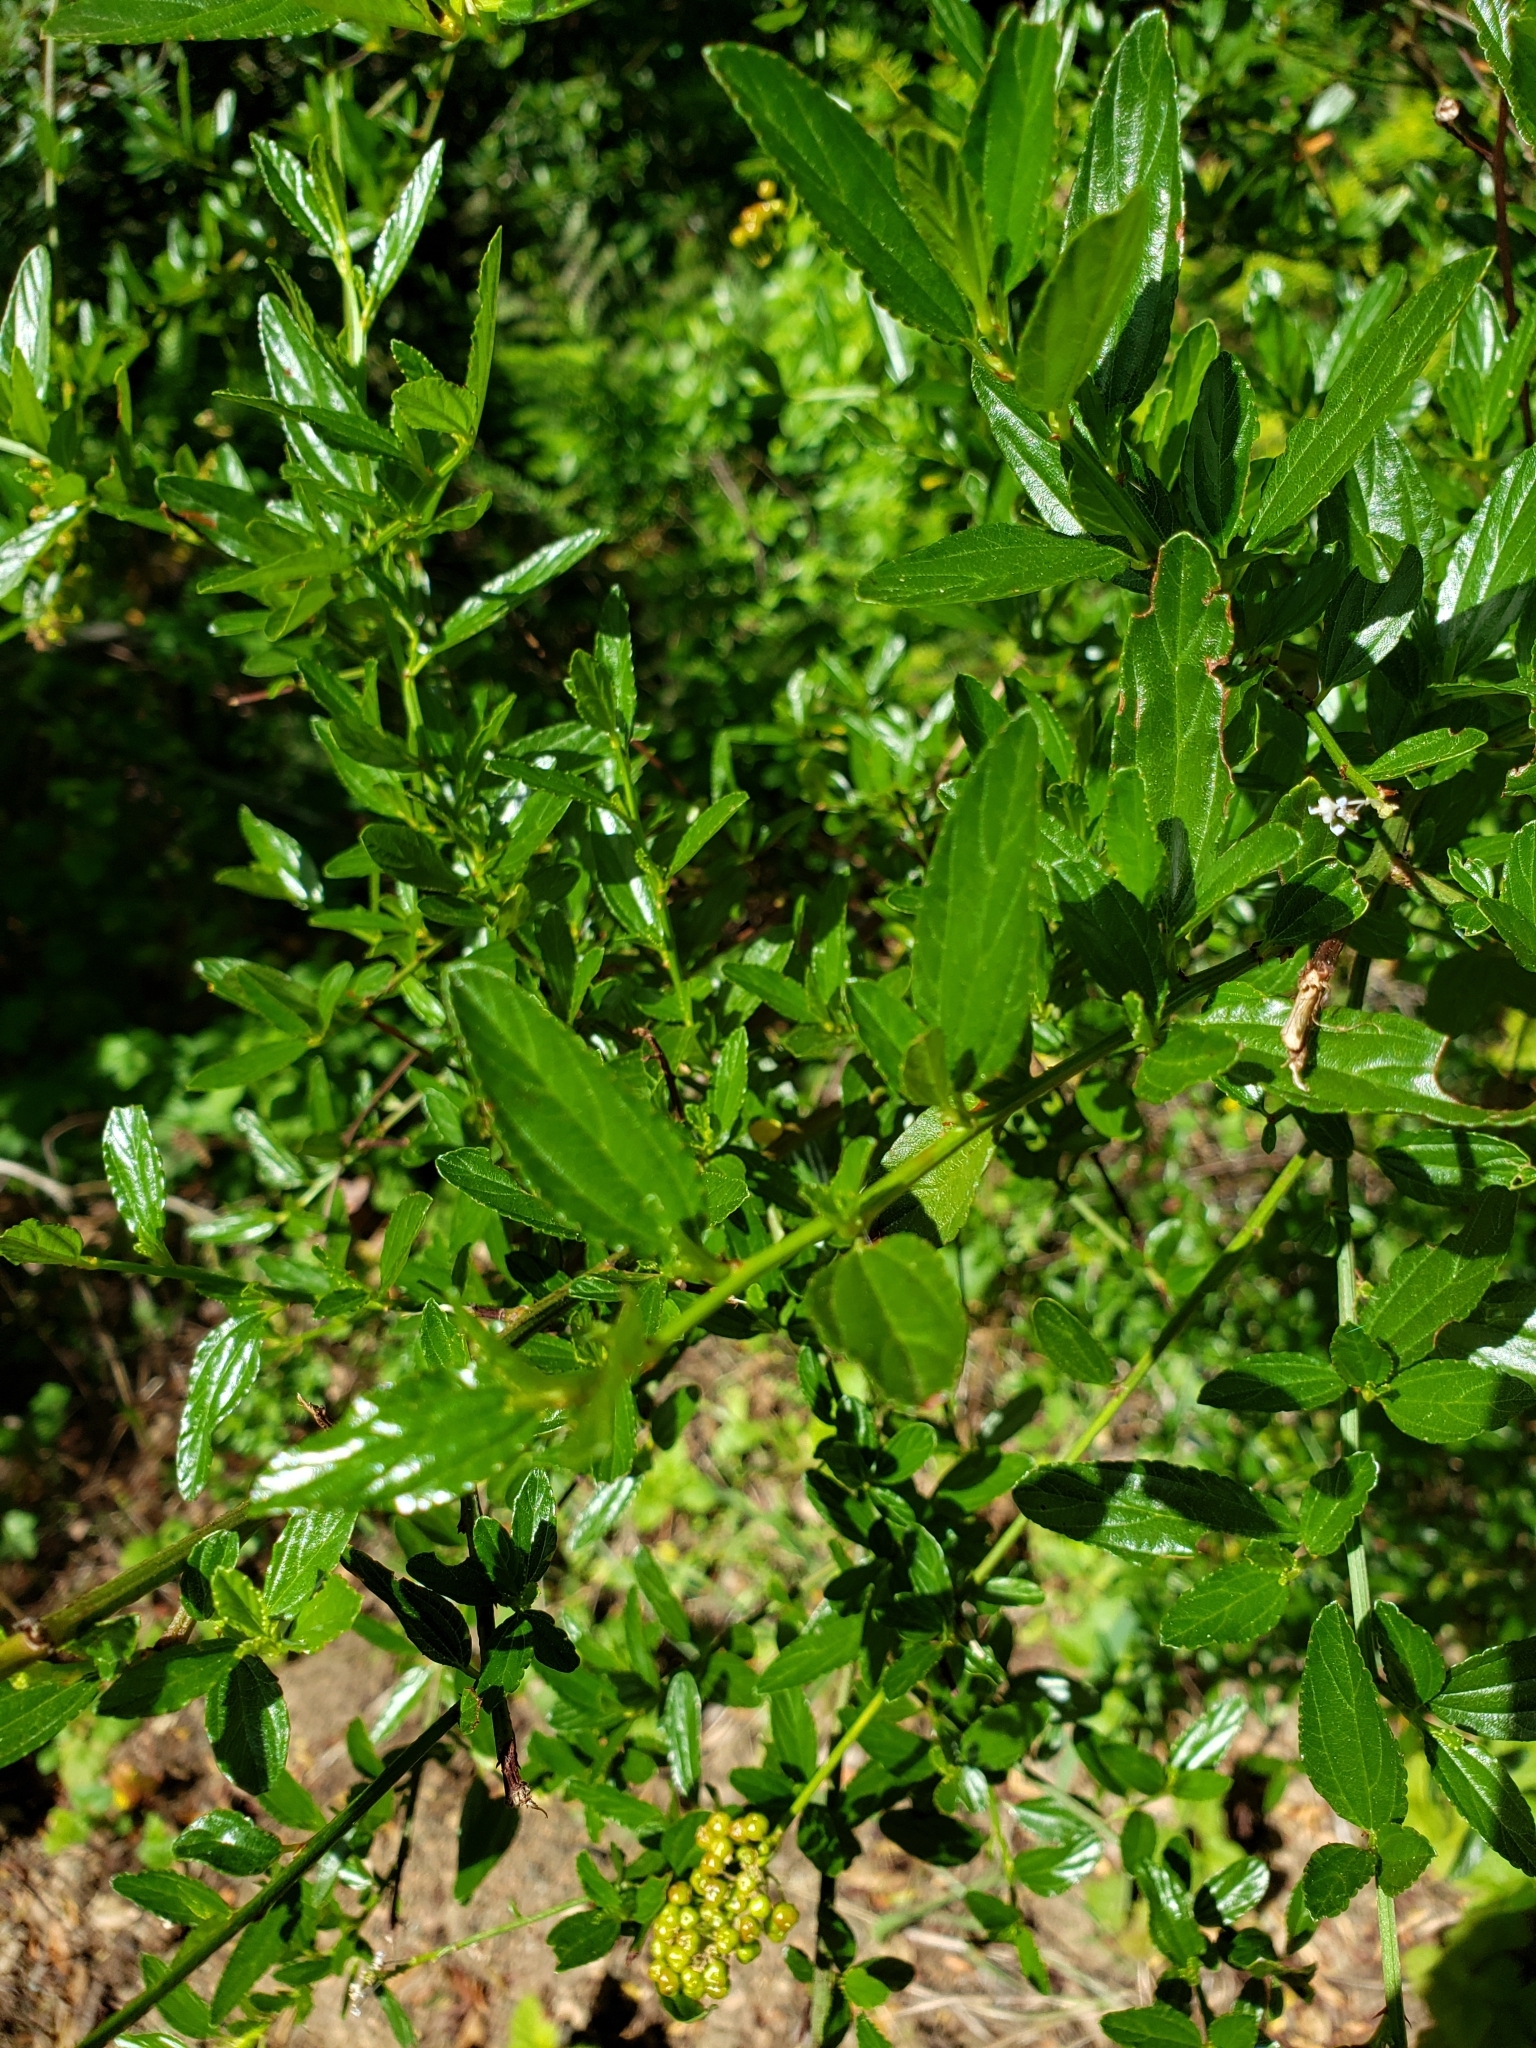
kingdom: Plantae
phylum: Tracheophyta
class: Magnoliopsida
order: Rosales
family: Rhamnaceae
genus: Ceanothus
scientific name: Ceanothus thyrsiflorus
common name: California-lilac
